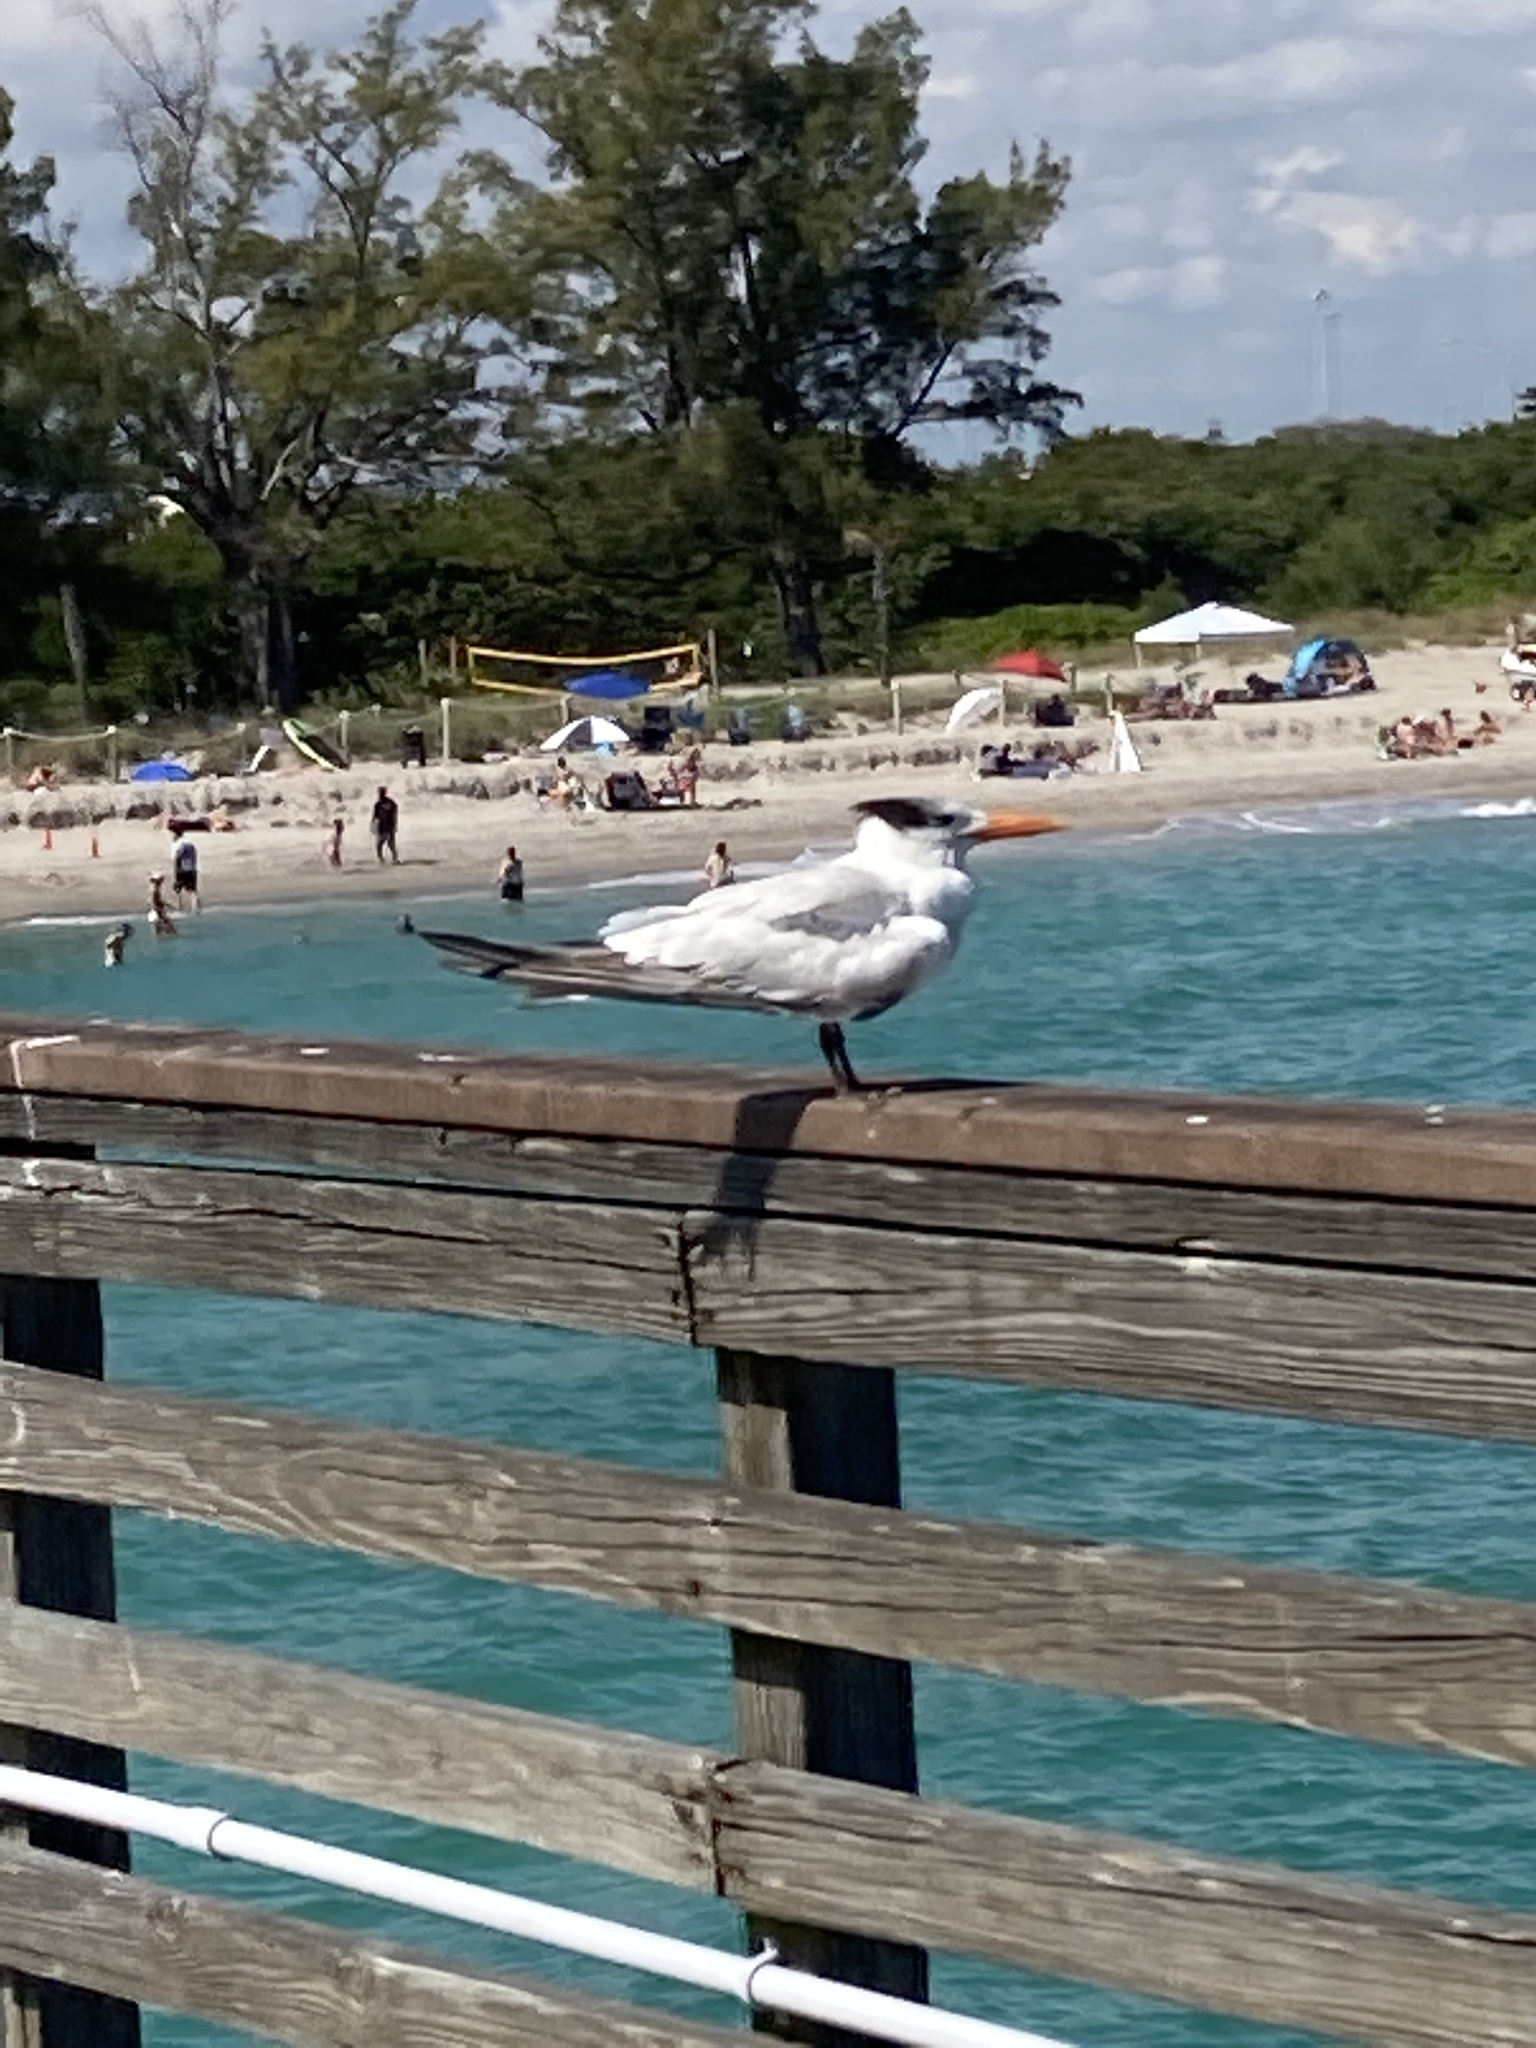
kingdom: Animalia
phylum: Chordata
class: Aves
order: Charadriiformes
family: Laridae
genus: Thalasseus
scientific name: Thalasseus maximus
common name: Royal tern
